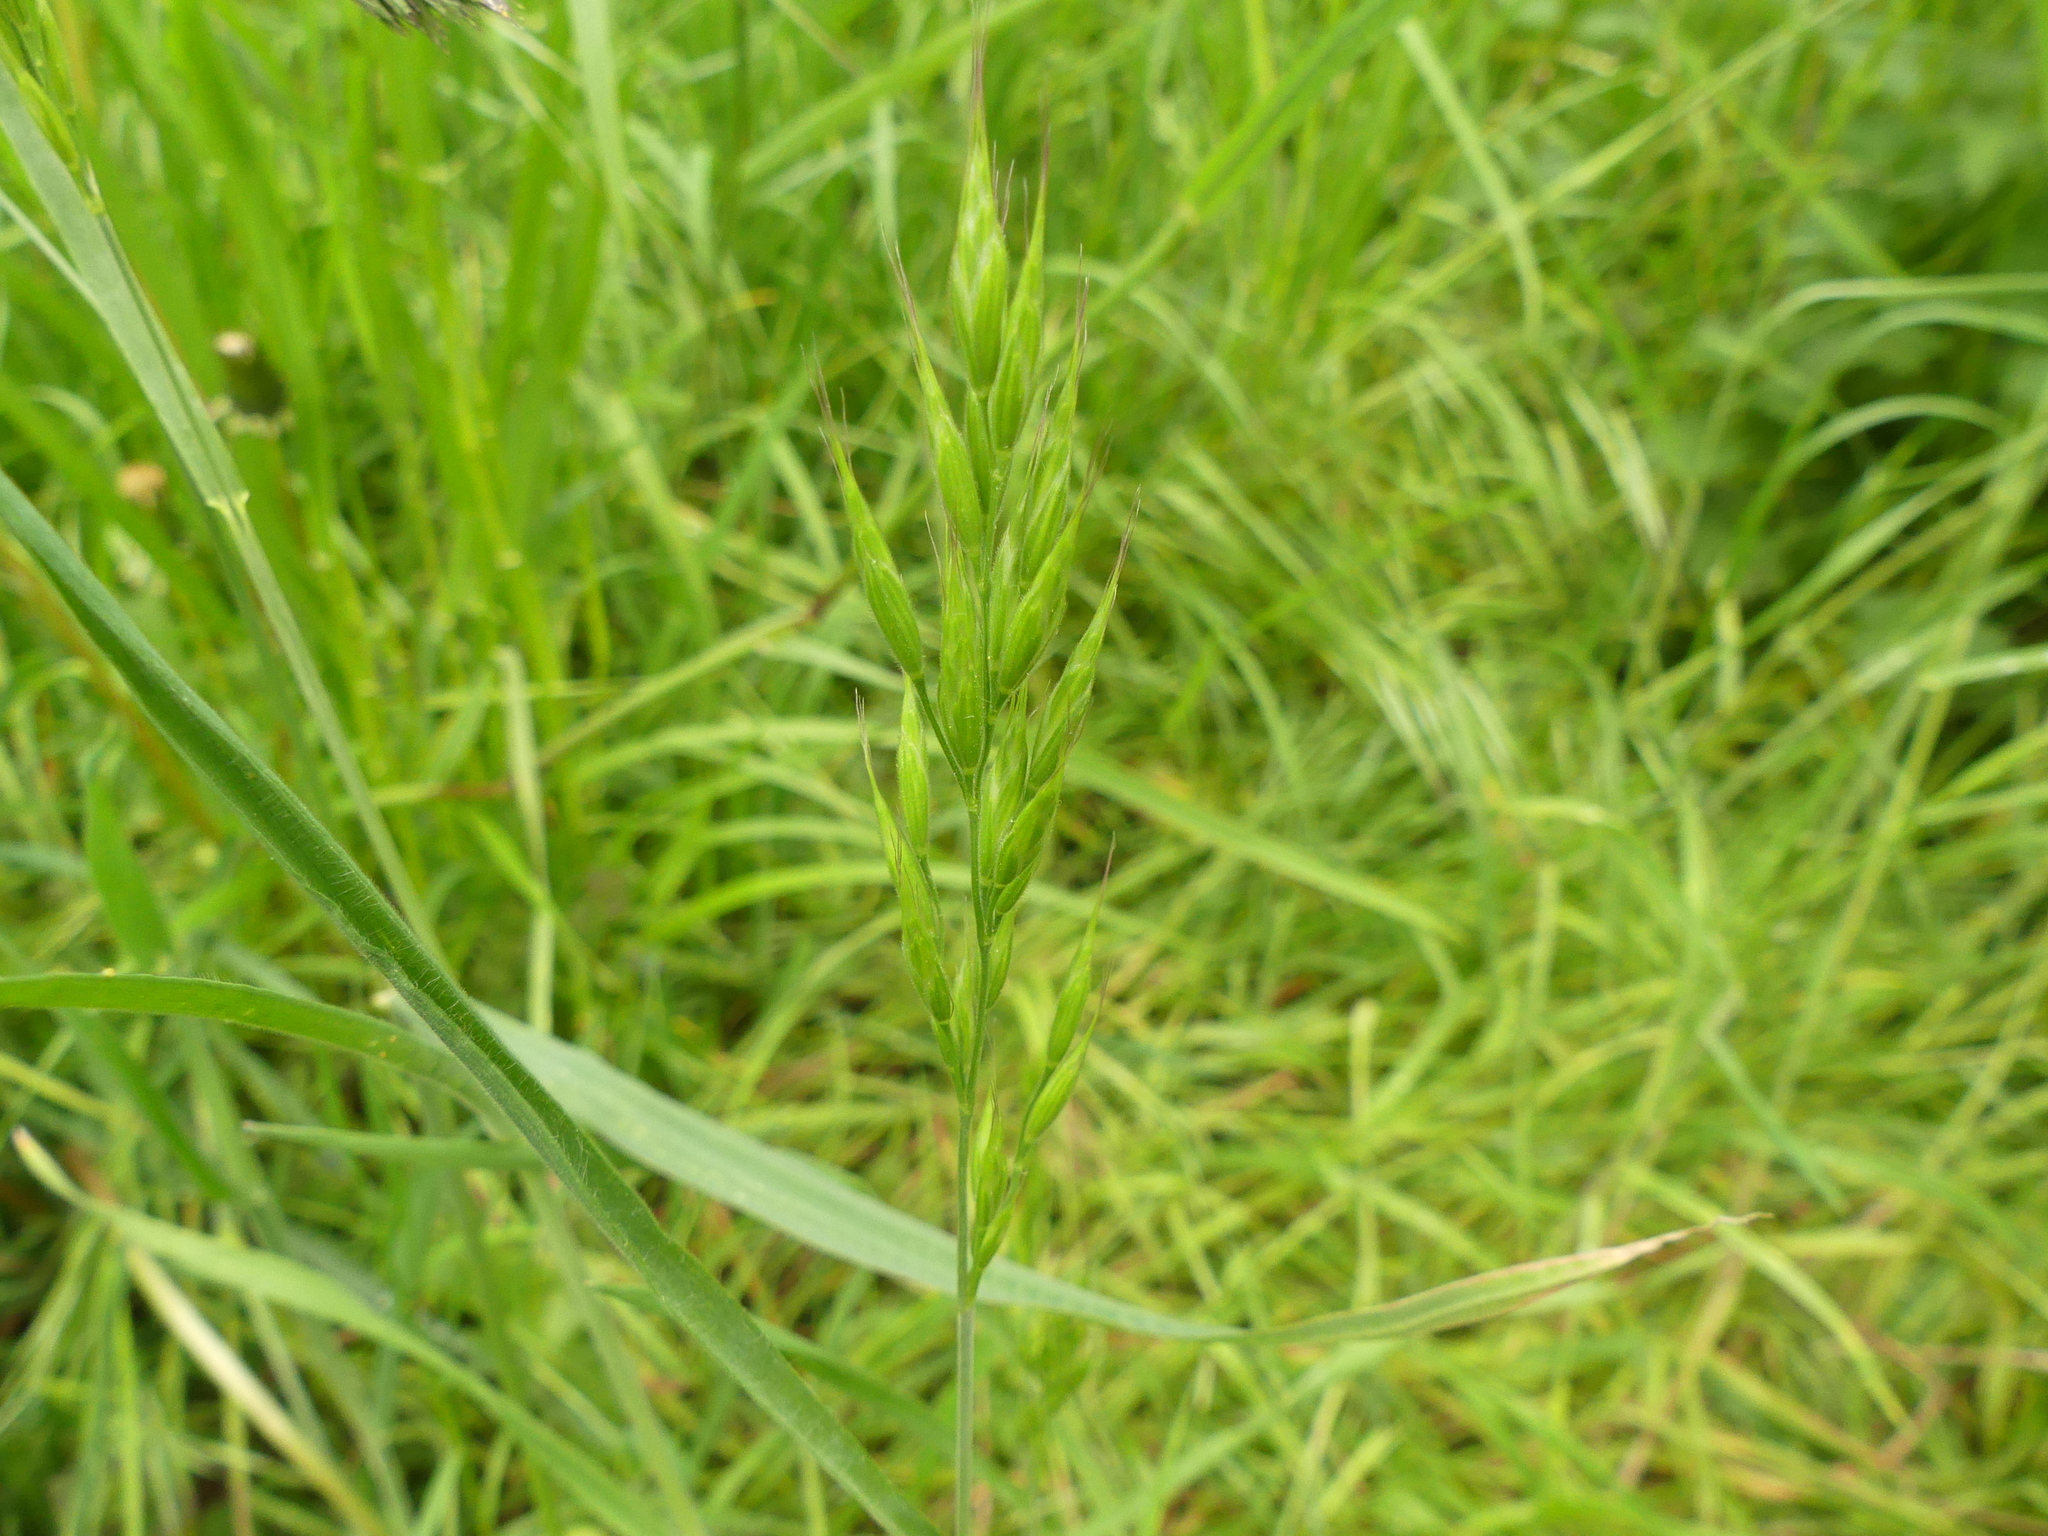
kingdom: Plantae
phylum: Tracheophyta
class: Liliopsida
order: Poales
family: Poaceae
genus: Bromus
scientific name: Bromus hordeaceus
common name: Soft brome
